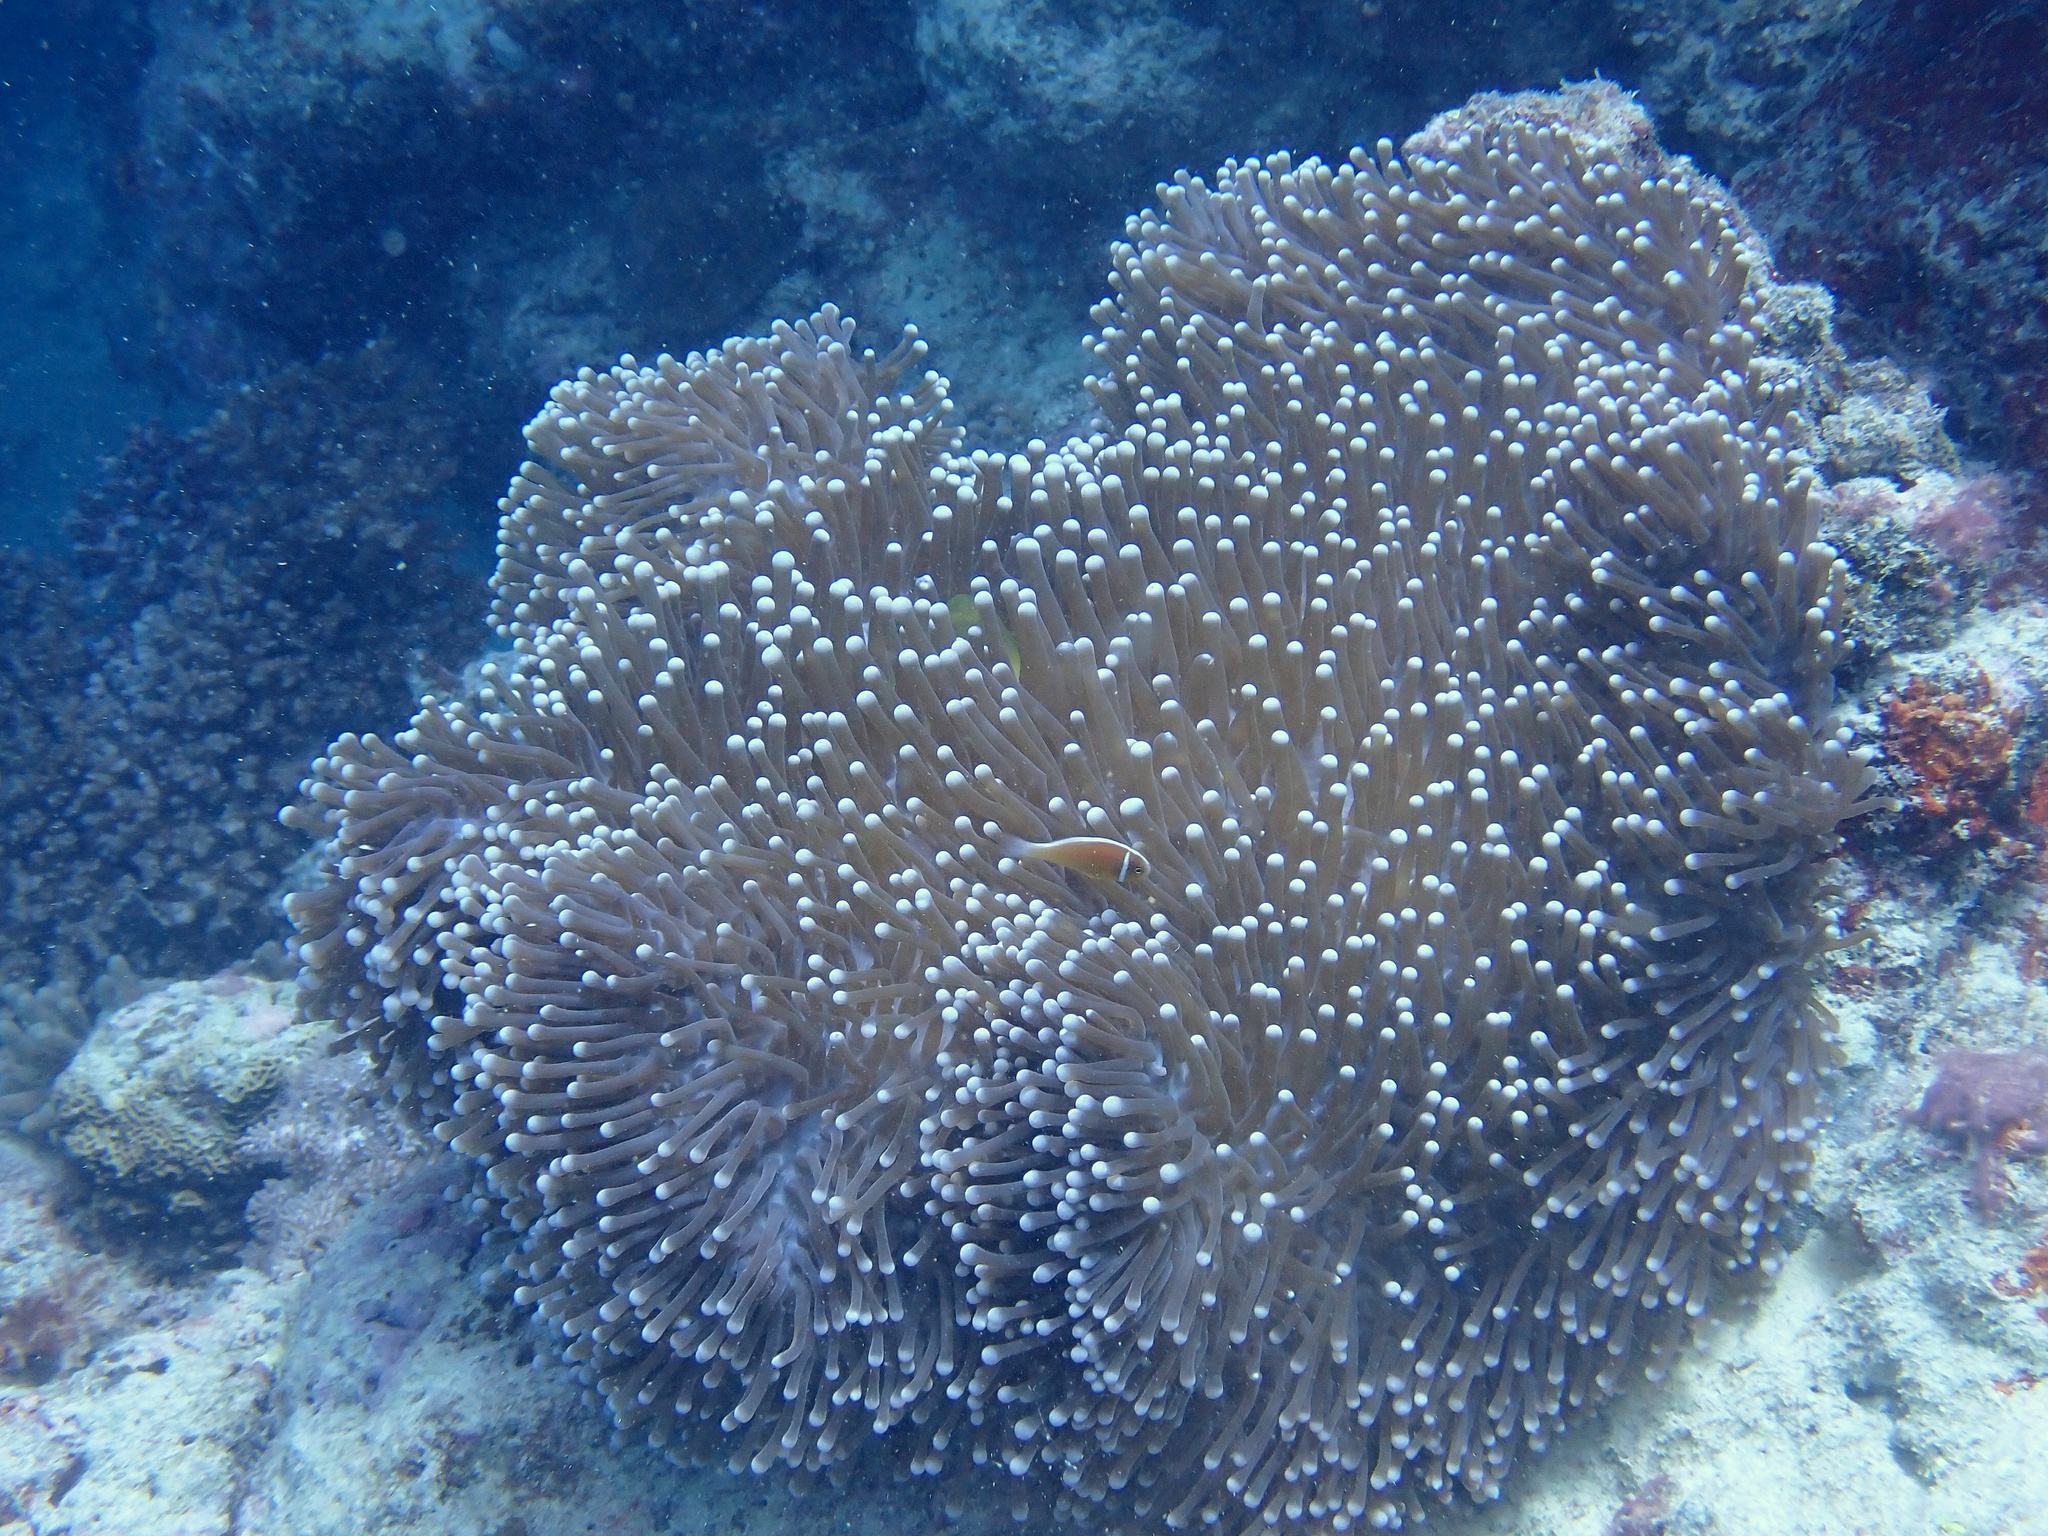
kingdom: Animalia
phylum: Cnidaria
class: Anthozoa
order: Actiniaria
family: Stichodactylidae
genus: Radianthus
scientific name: Radianthus magnifica
